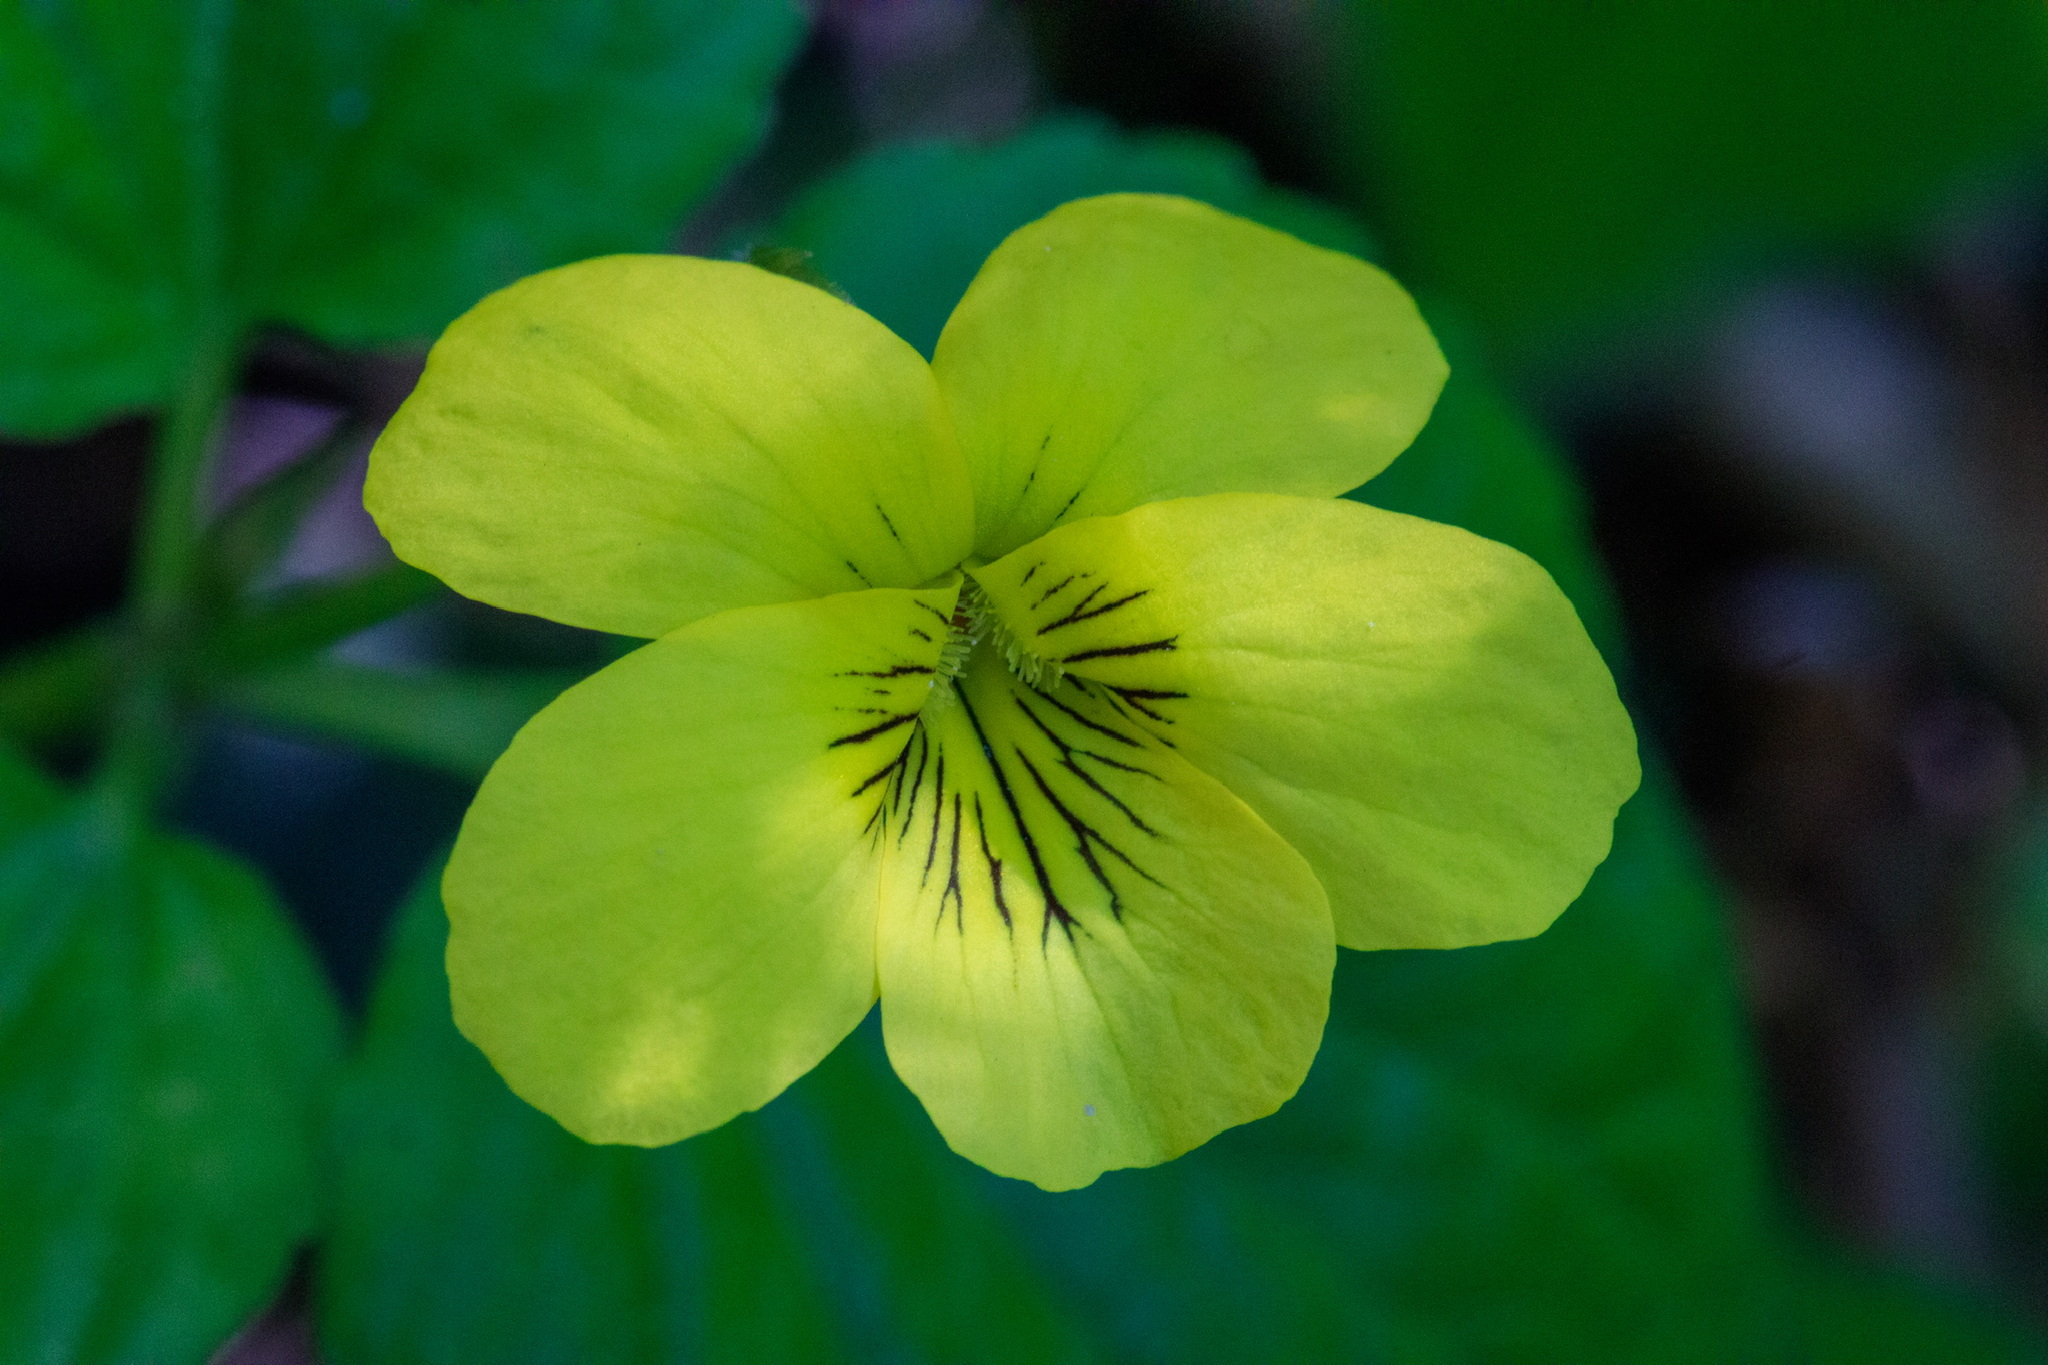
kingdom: Plantae
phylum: Tracheophyta
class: Magnoliopsida
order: Malpighiales
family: Violaceae
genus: Viola
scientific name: Viola acutifolia
